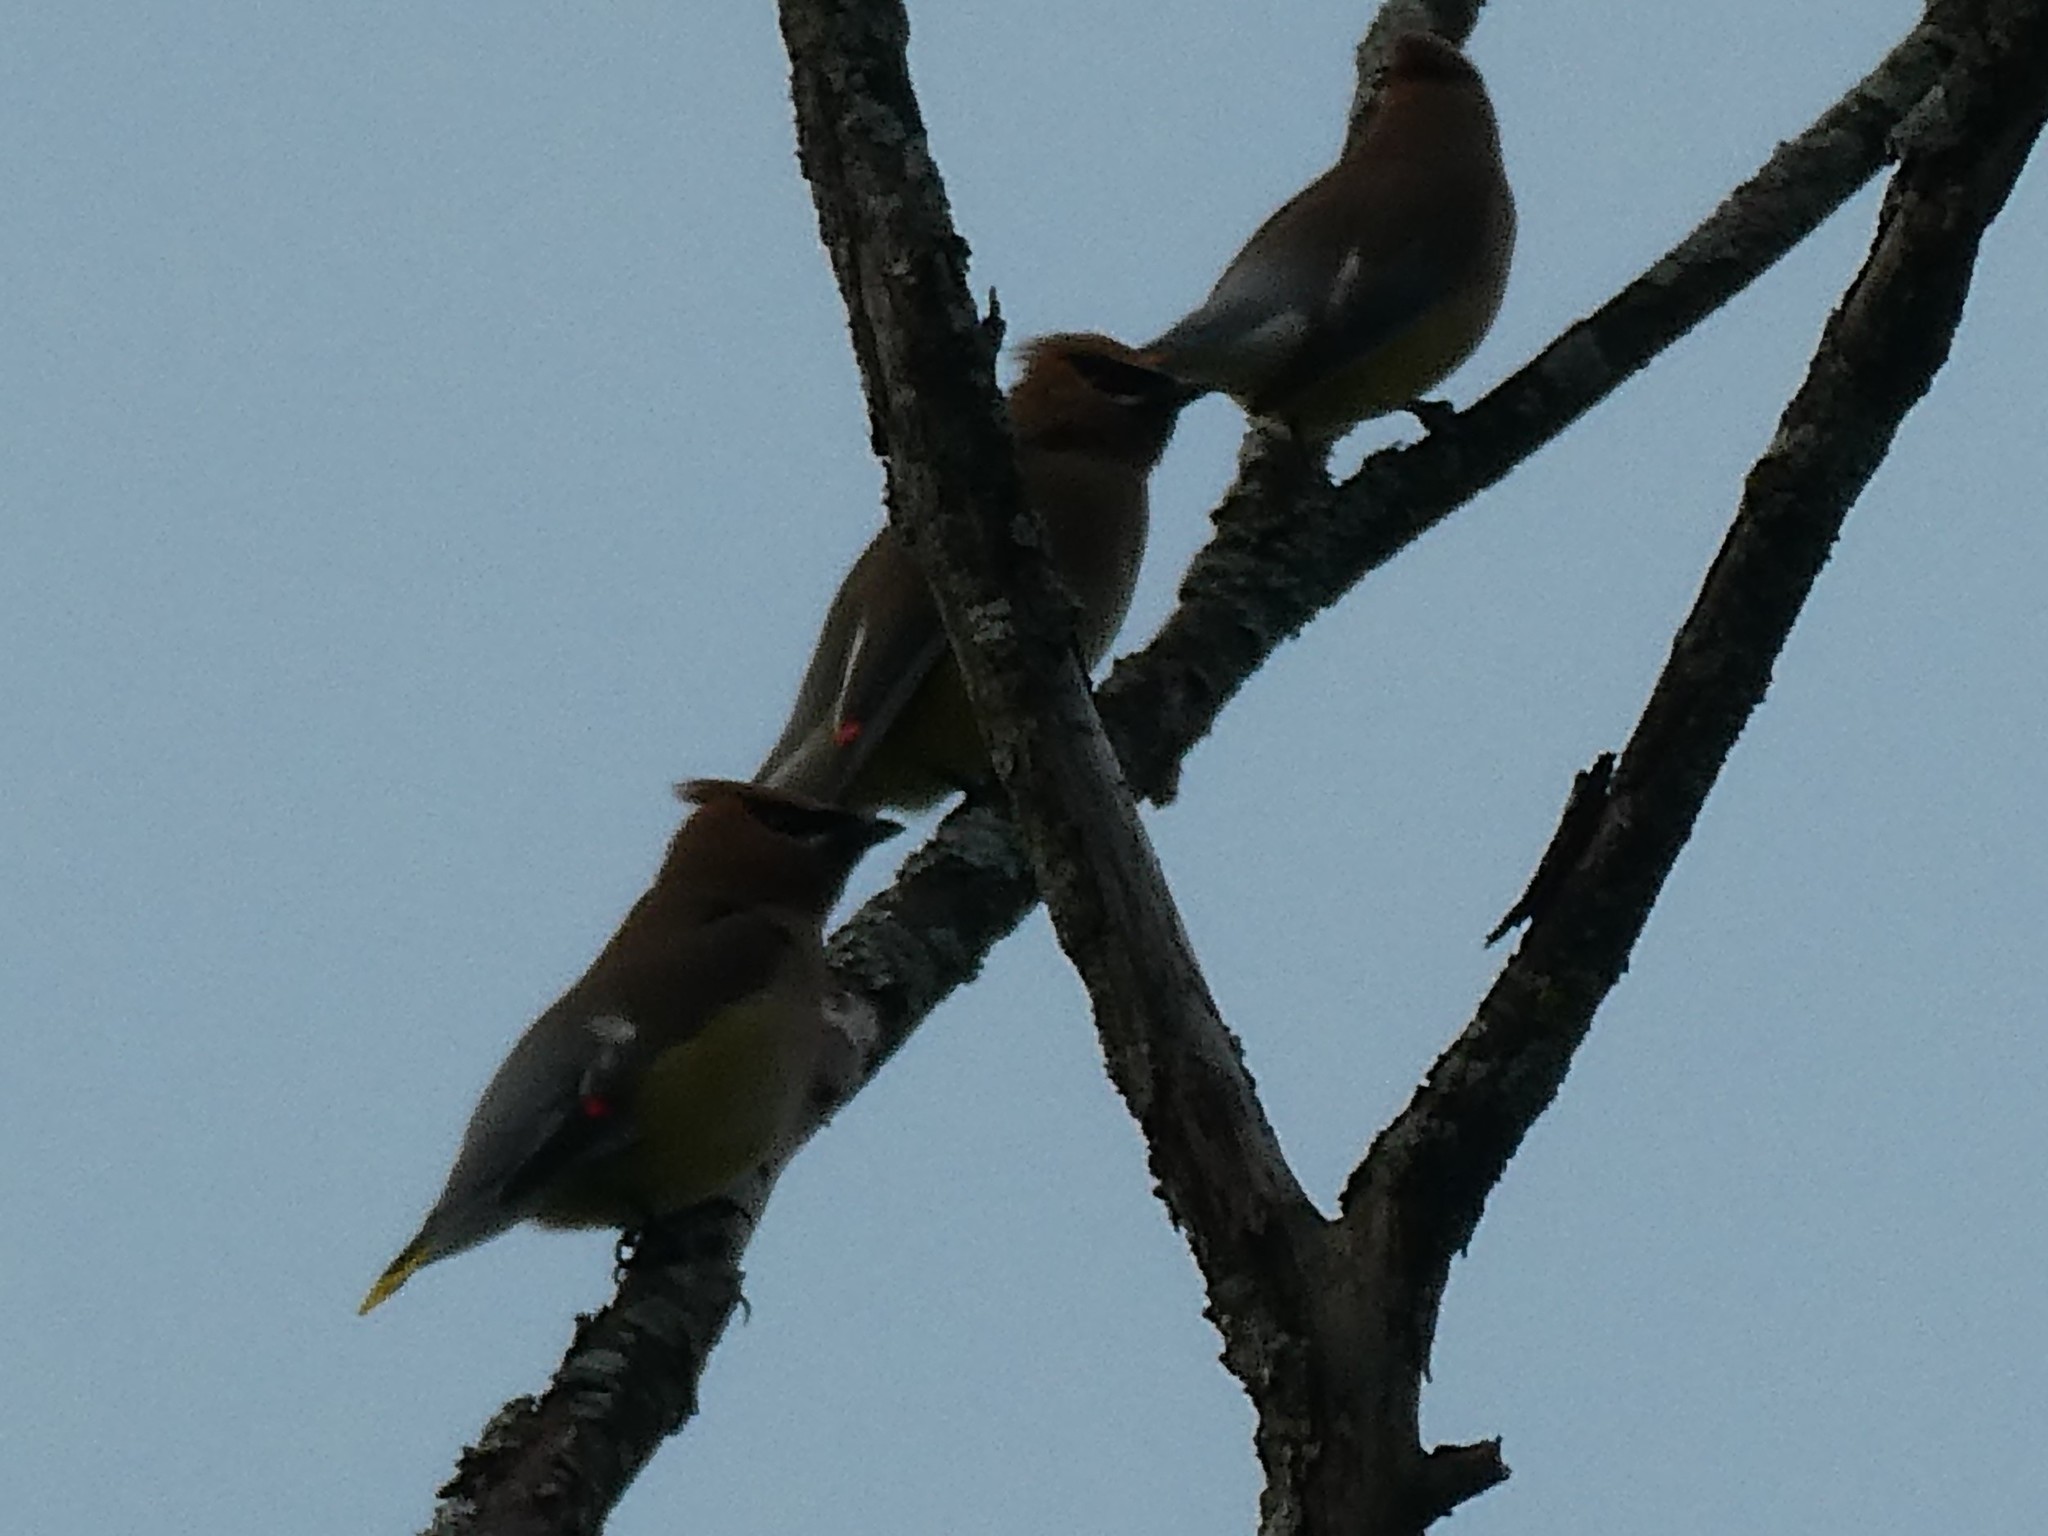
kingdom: Animalia
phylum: Chordata
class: Aves
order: Passeriformes
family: Bombycillidae
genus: Bombycilla
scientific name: Bombycilla cedrorum
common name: Cedar waxwing
